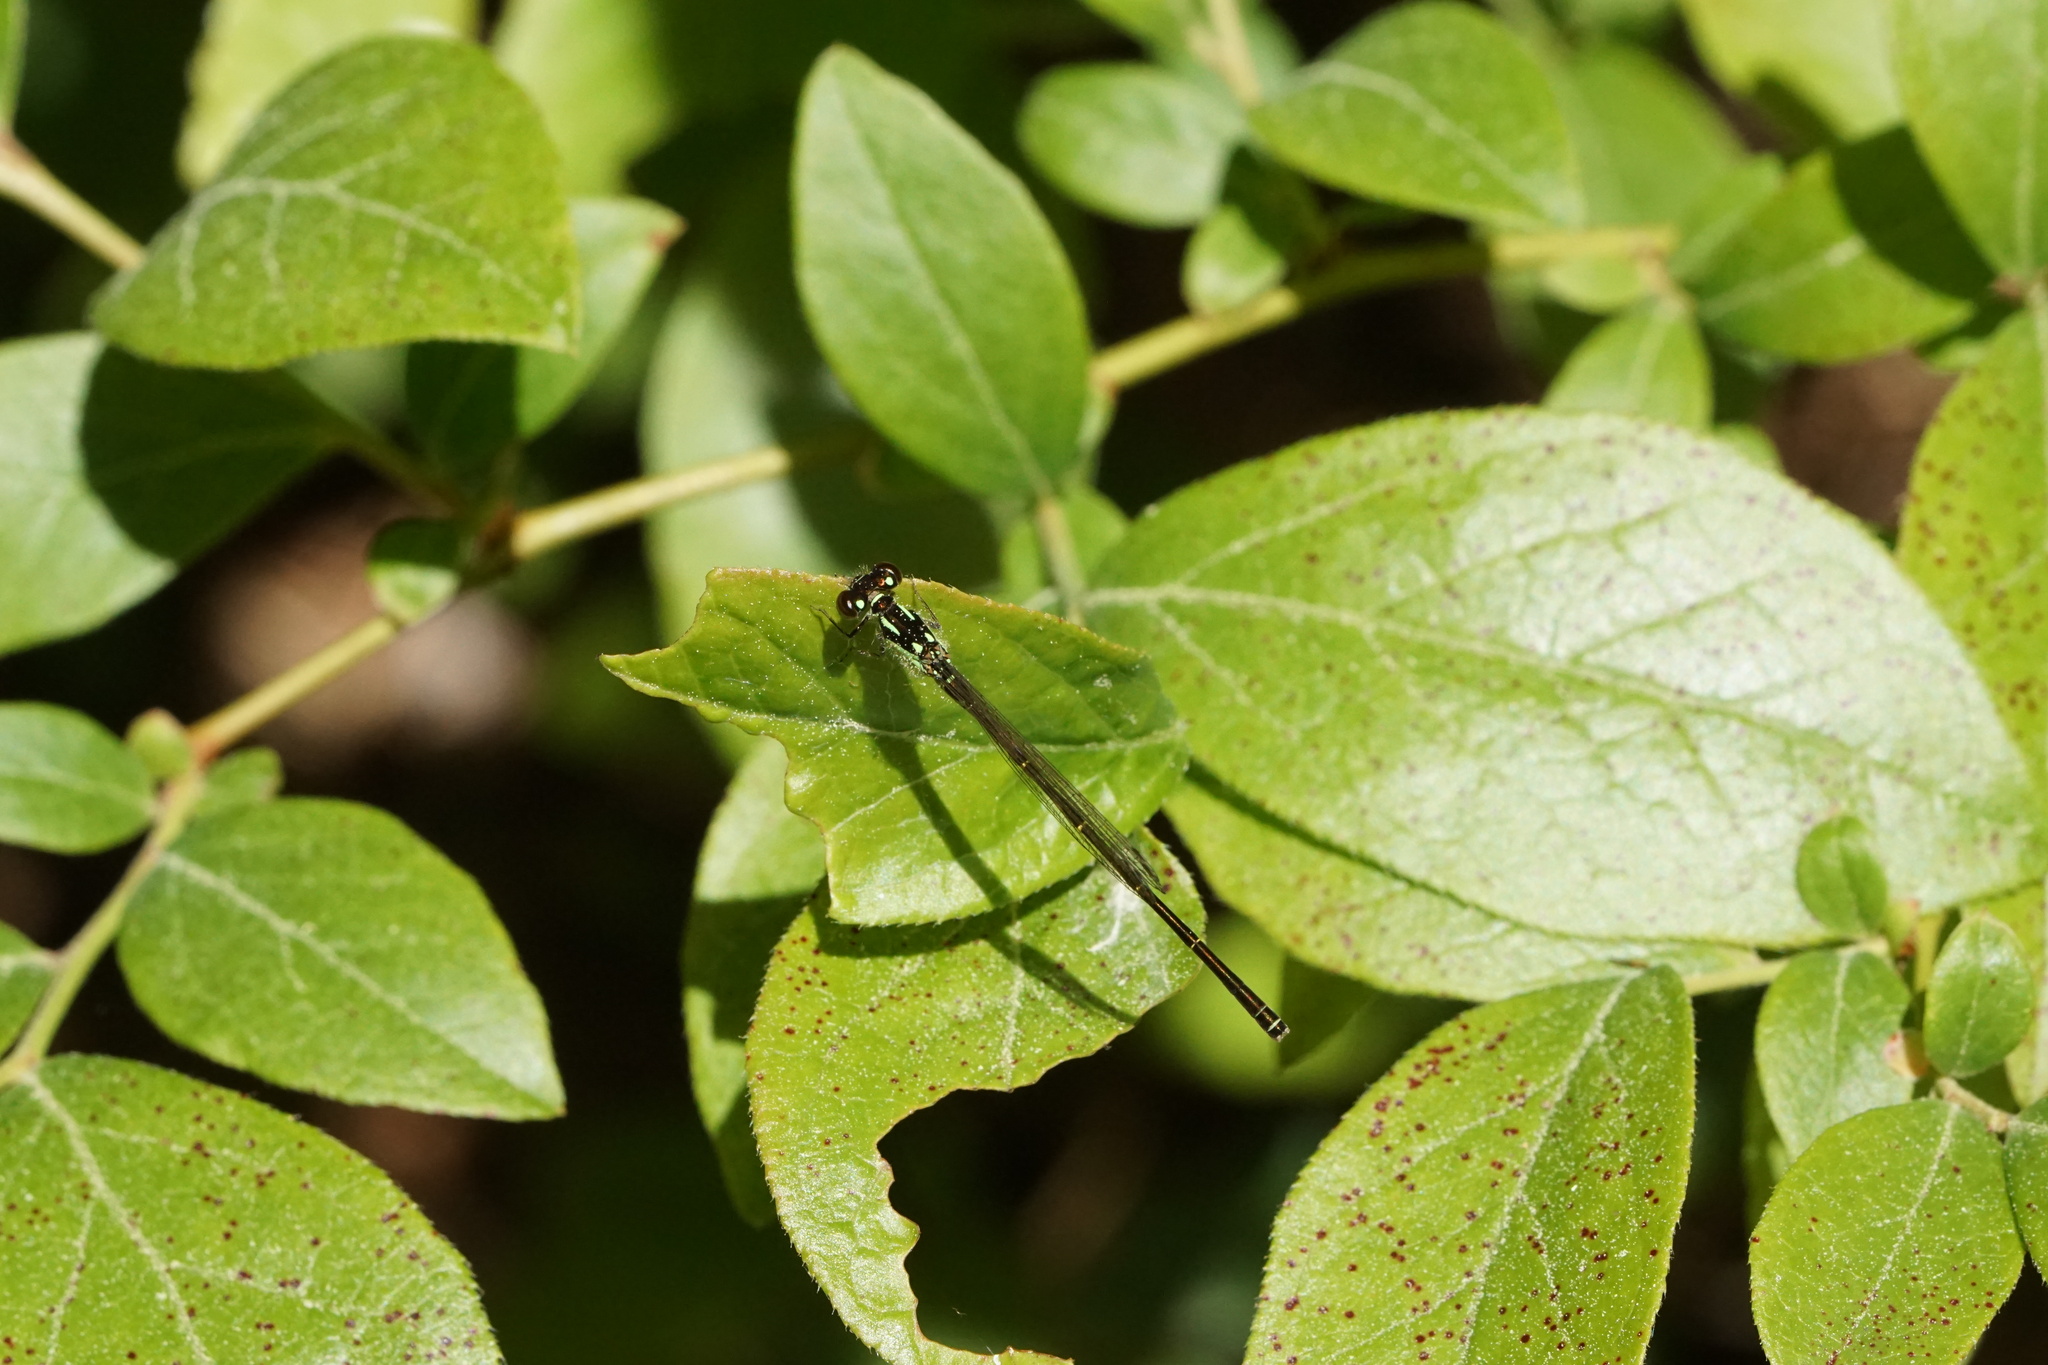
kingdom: Animalia
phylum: Arthropoda
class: Insecta
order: Odonata
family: Coenagrionidae
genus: Ischnura
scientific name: Ischnura posita
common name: Fragile forktail
